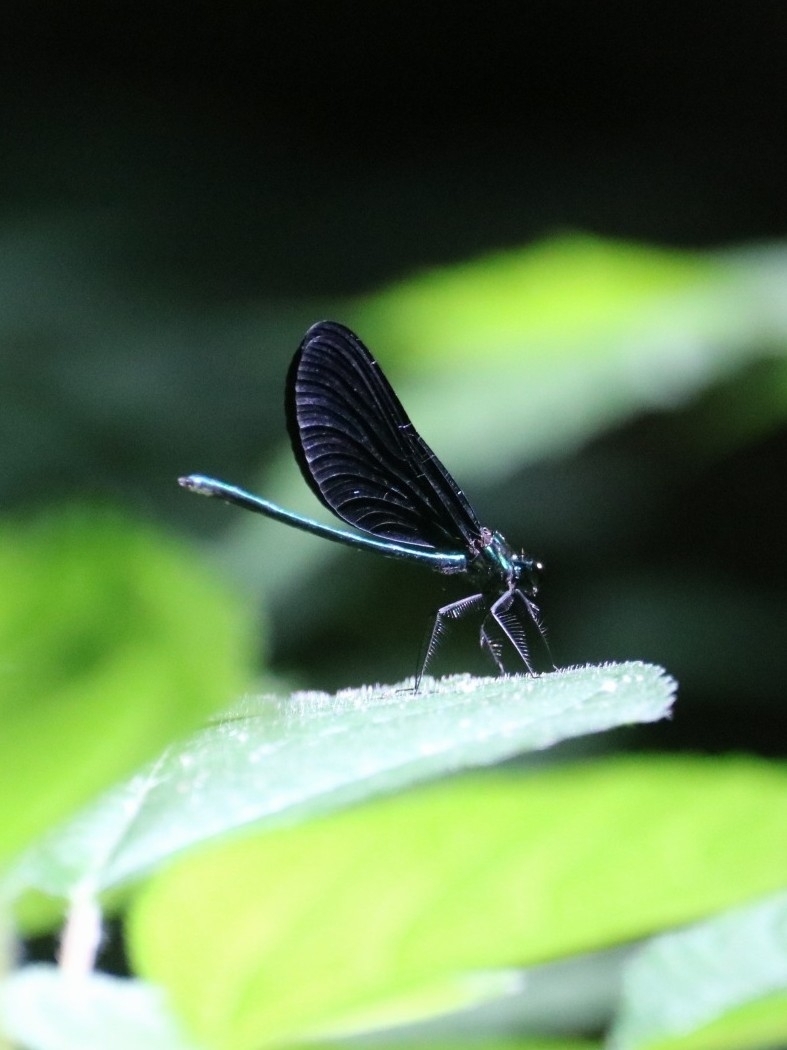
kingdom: Animalia
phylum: Arthropoda
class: Insecta
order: Odonata
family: Calopterygidae
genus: Calopteryx
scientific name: Calopteryx maculata
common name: Ebony jewelwing
